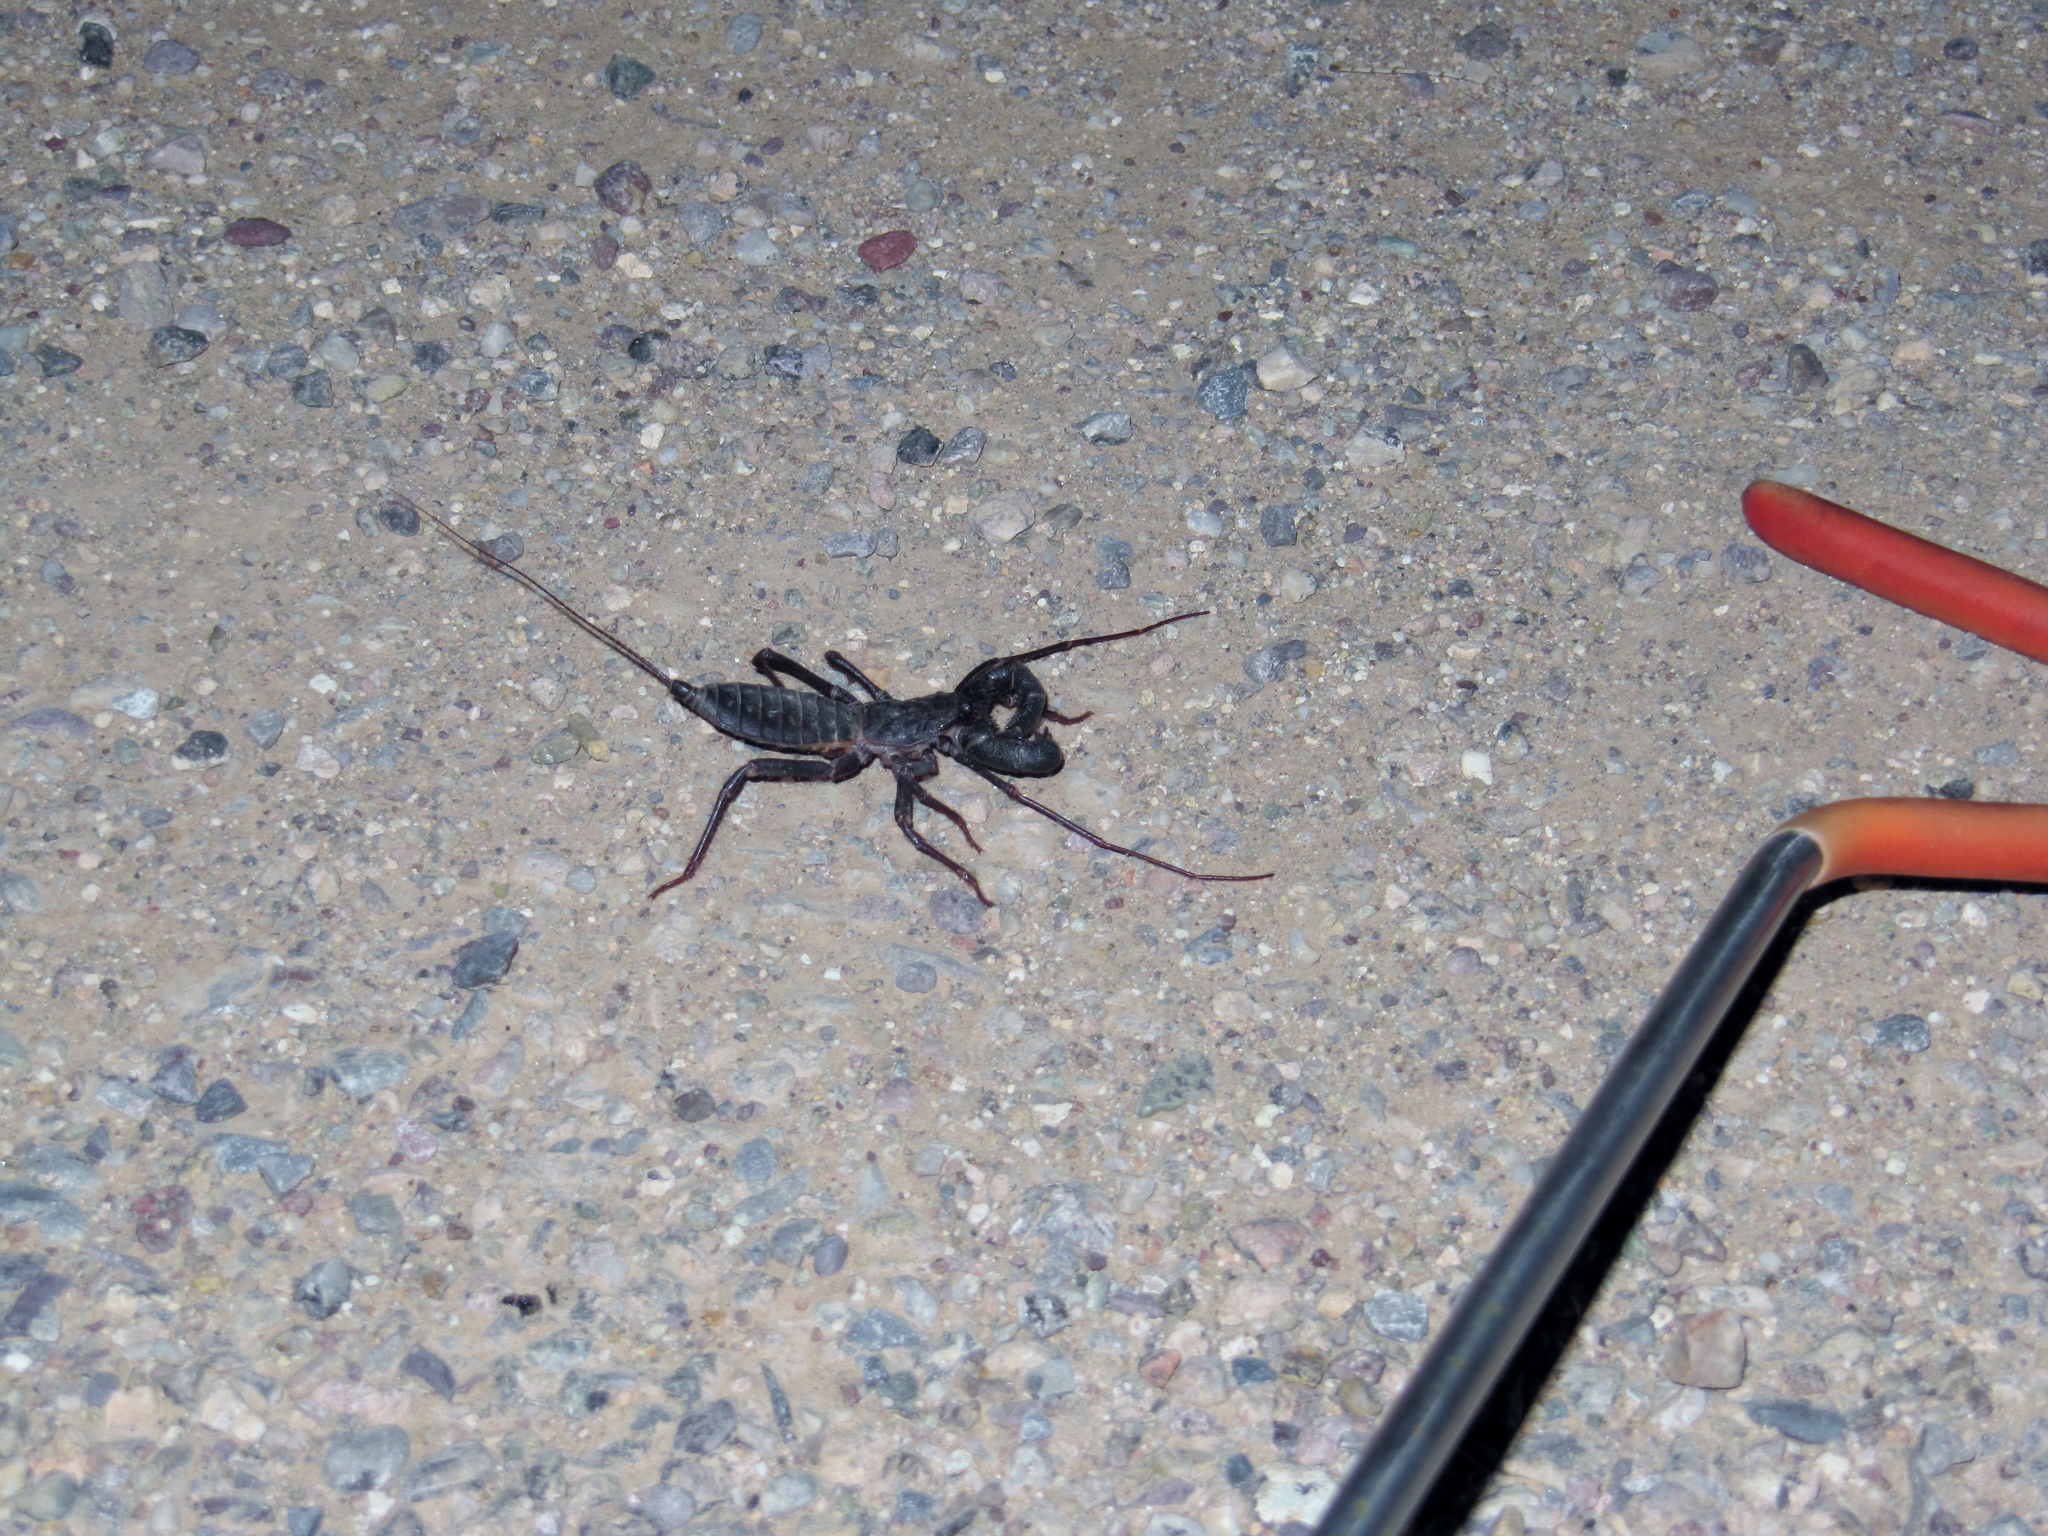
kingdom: Animalia
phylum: Arthropoda
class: Arachnida
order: Uropygi
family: Thelyphonidae
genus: Mastigoproctus
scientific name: Mastigoproctus tohono
